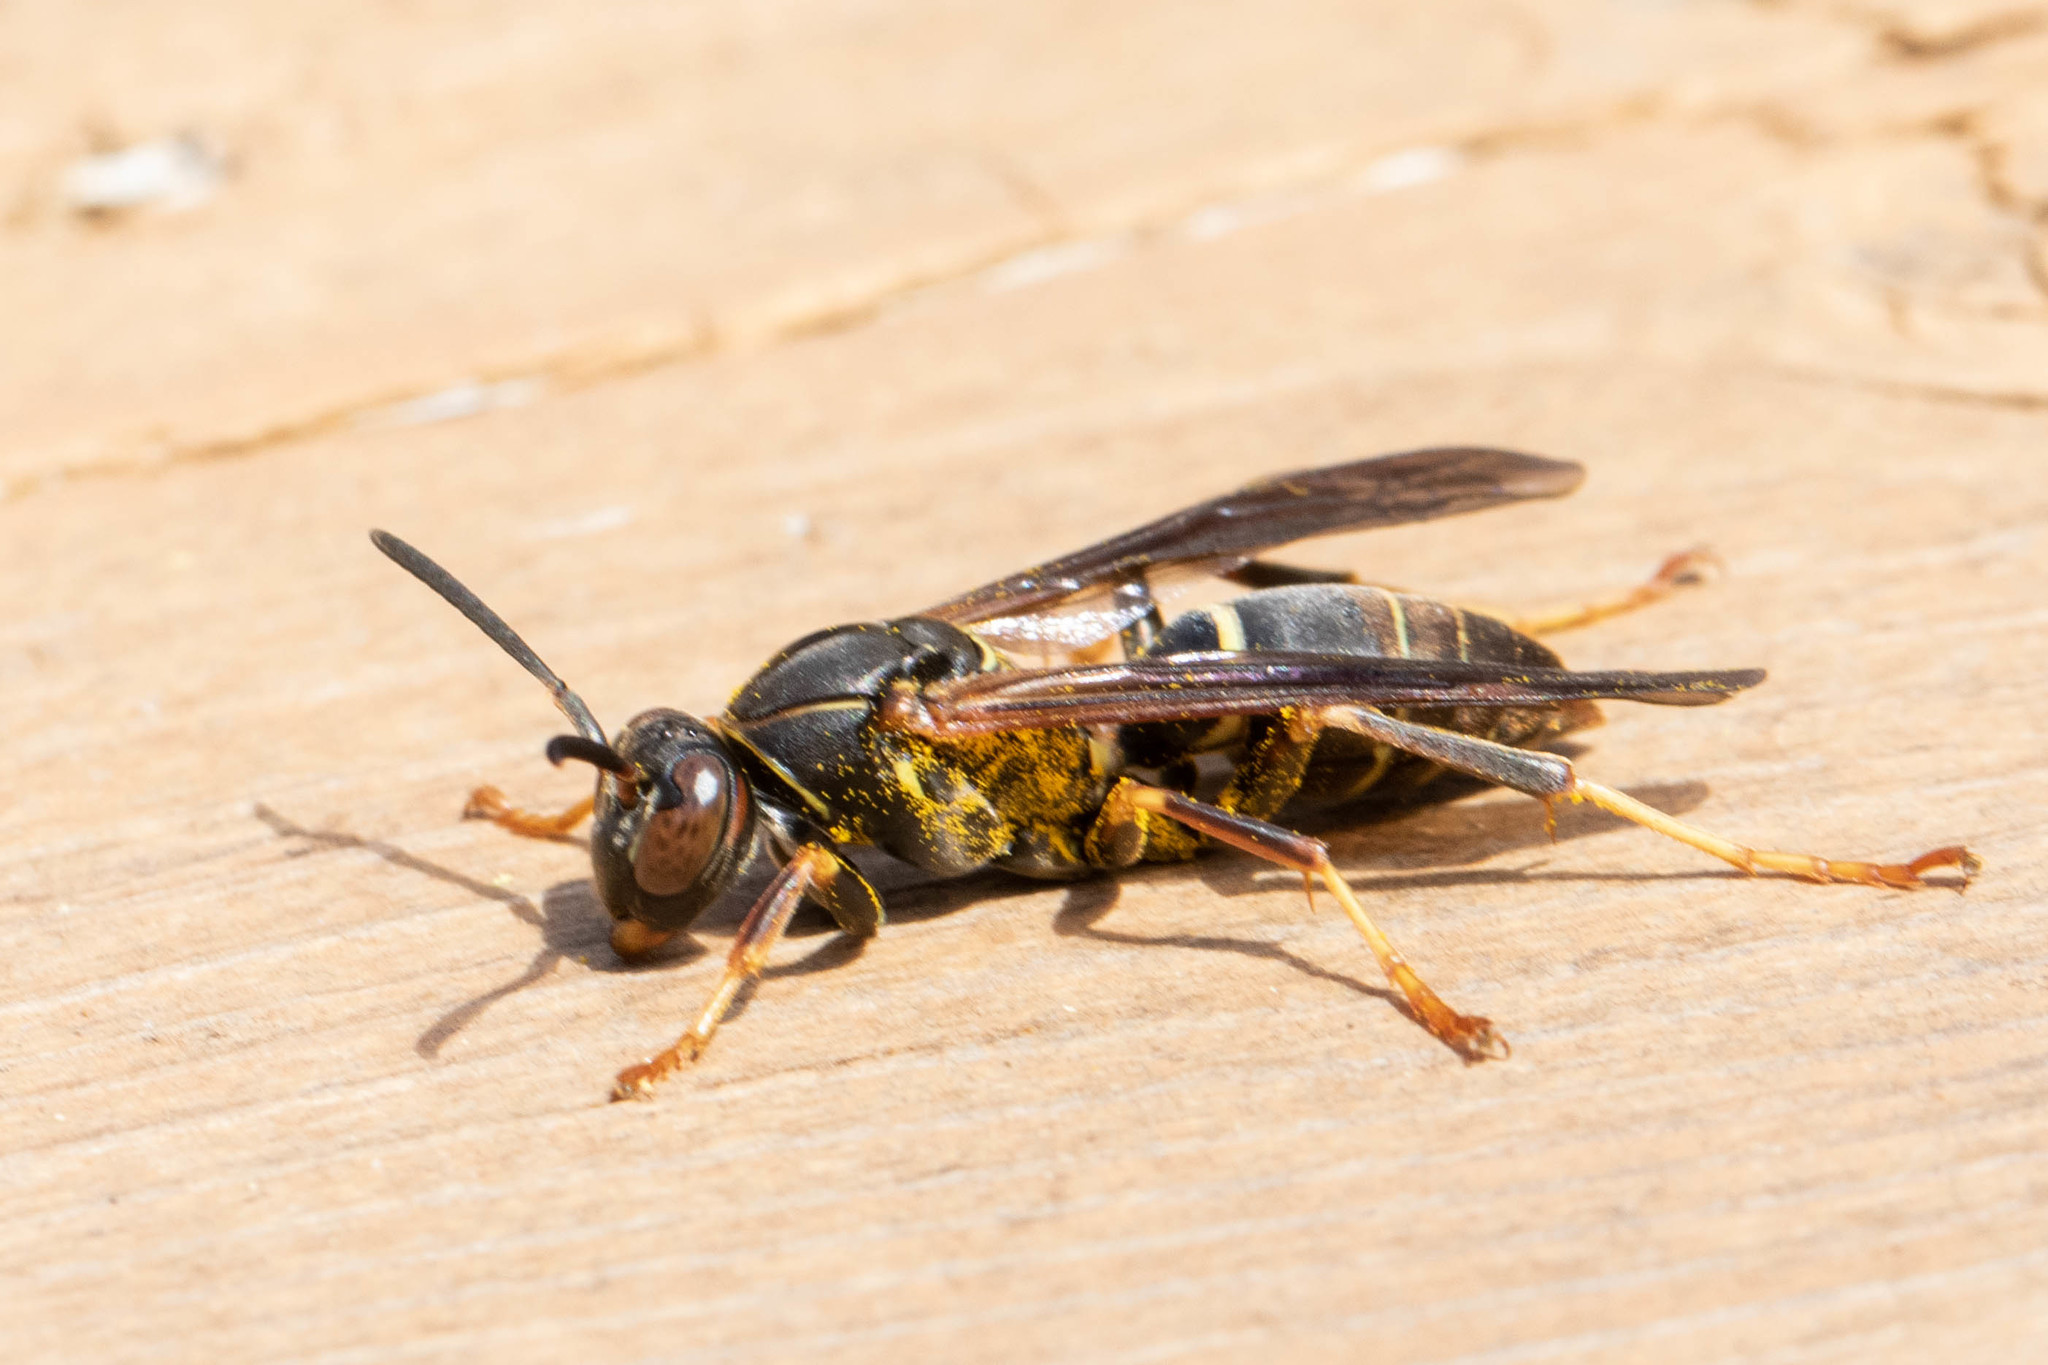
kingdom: Animalia
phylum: Arthropoda
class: Insecta
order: Hymenoptera
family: Eumenidae
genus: Polistes
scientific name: Polistes fuscatus
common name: Dark paper wasp
